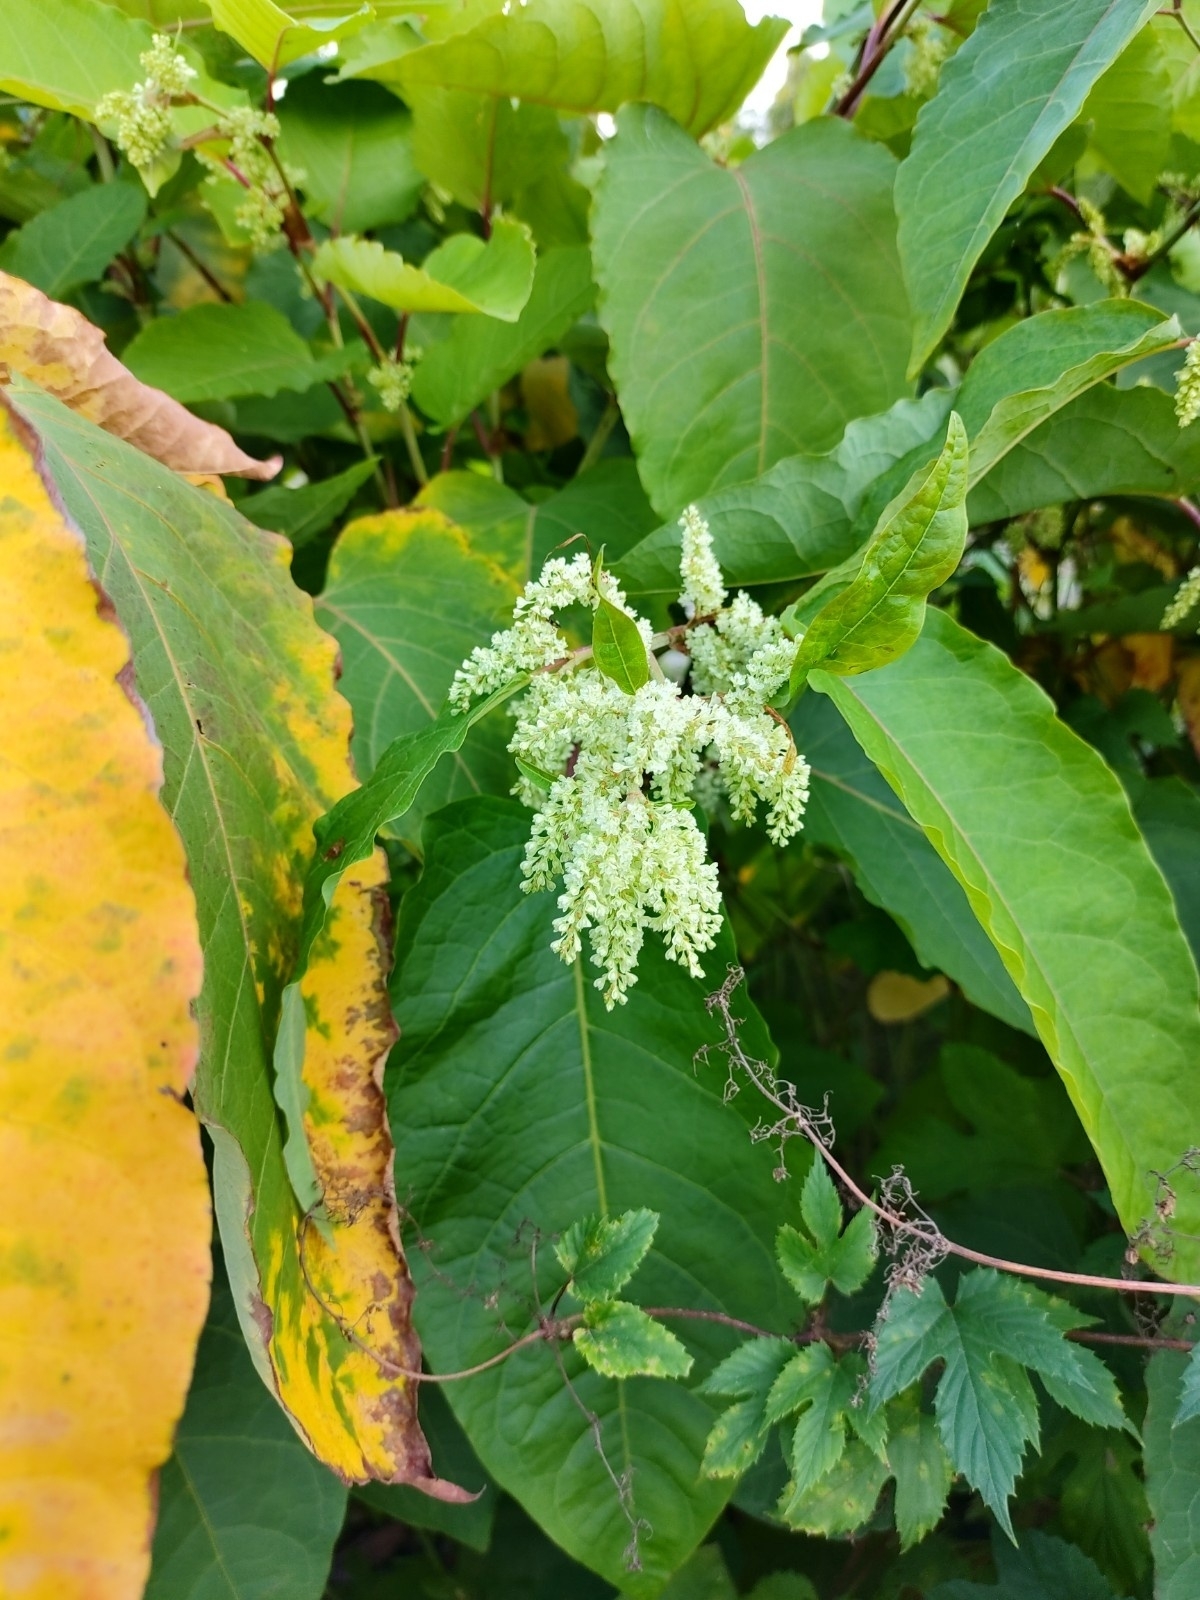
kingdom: Plantae
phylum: Tracheophyta
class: Magnoliopsida
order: Caryophyllales
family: Polygonaceae
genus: Reynoutria
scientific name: Reynoutria sachalinensis
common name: Giant knotweed
